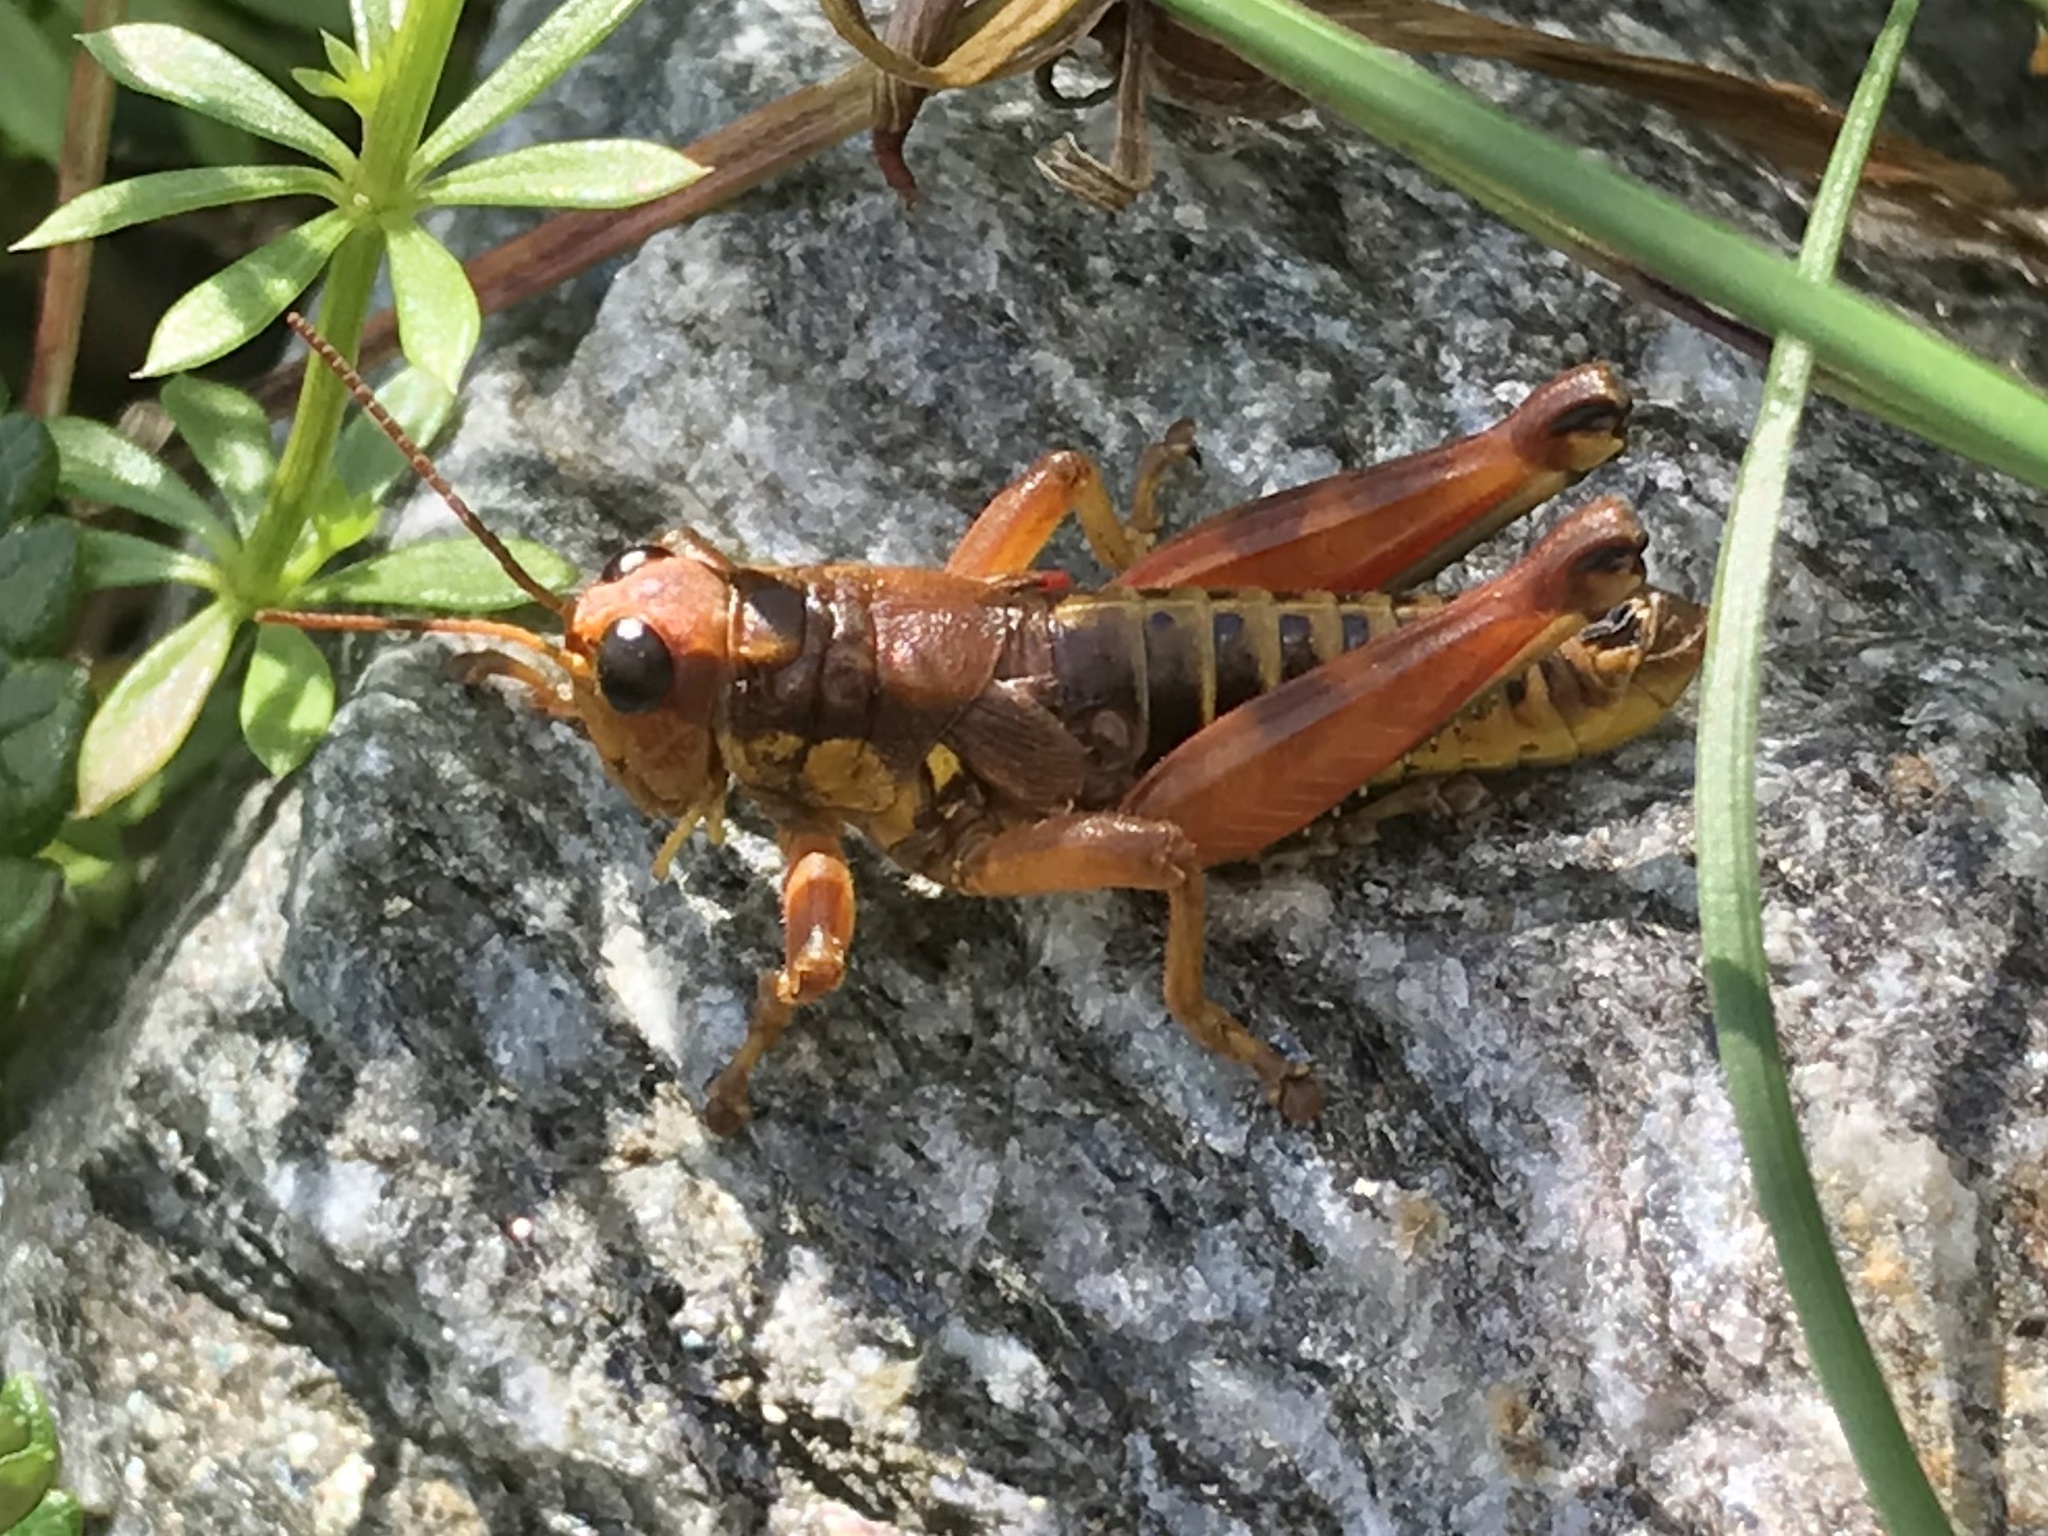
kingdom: Animalia
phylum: Arthropoda
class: Insecta
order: Orthoptera
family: Acrididae
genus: Podisma
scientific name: Podisma pedestris
